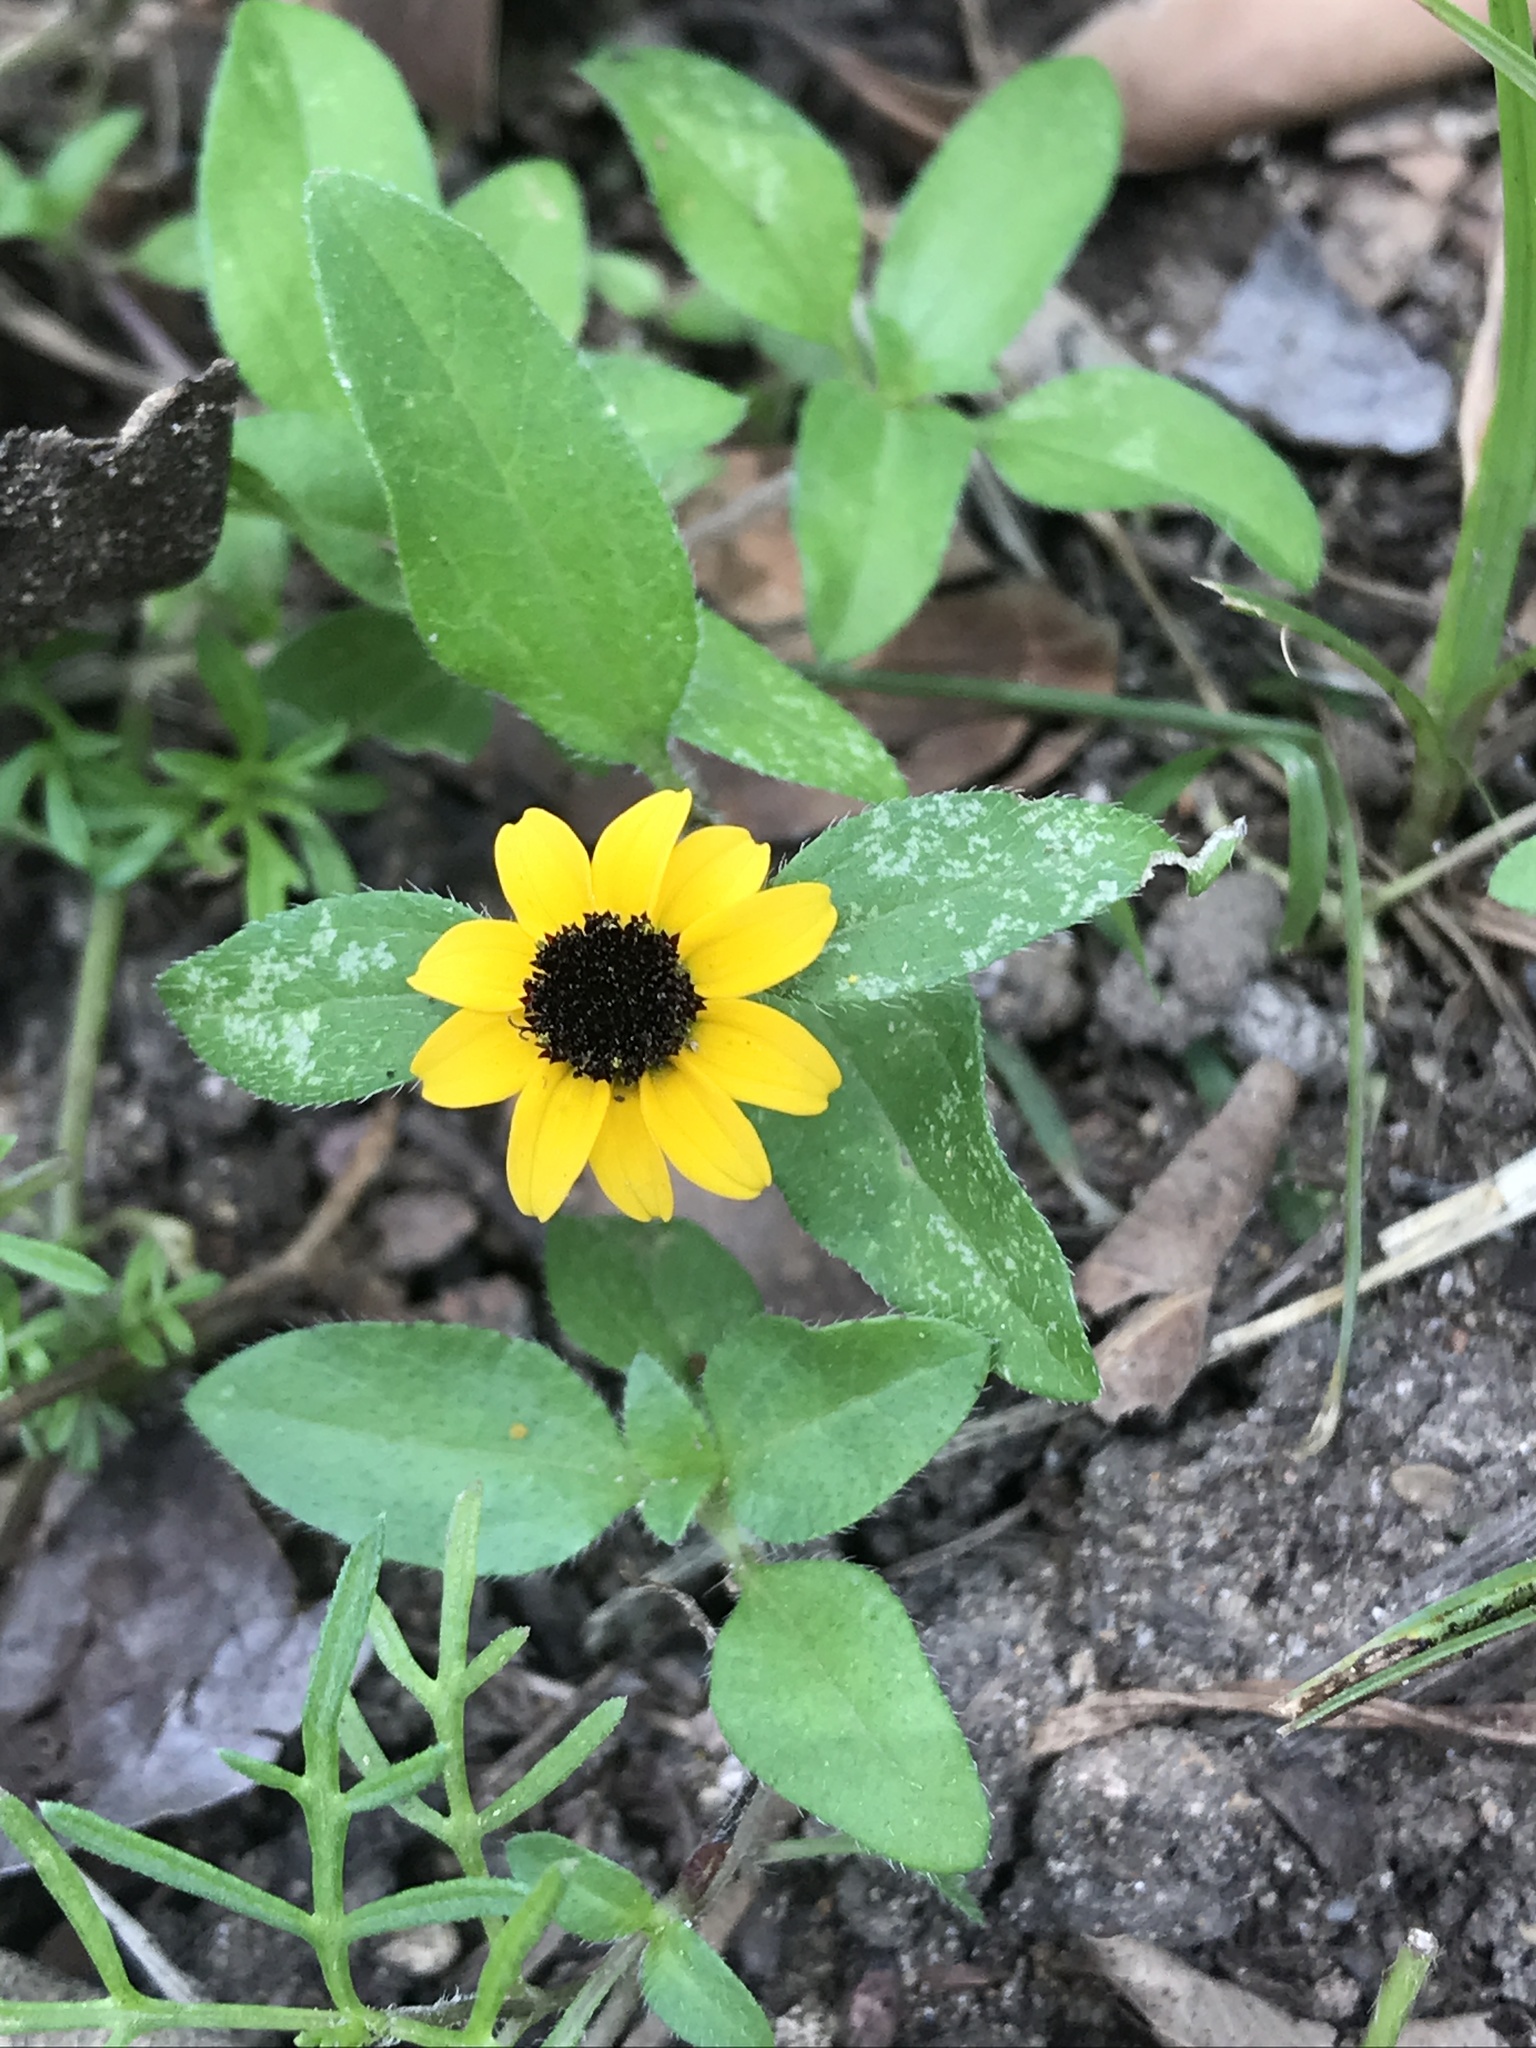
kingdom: Plantae
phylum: Tracheophyta
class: Magnoliopsida
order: Asterales
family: Asteraceae
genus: Sanvitalia
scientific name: Sanvitalia procumbens
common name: Mexican creeping zinnia
